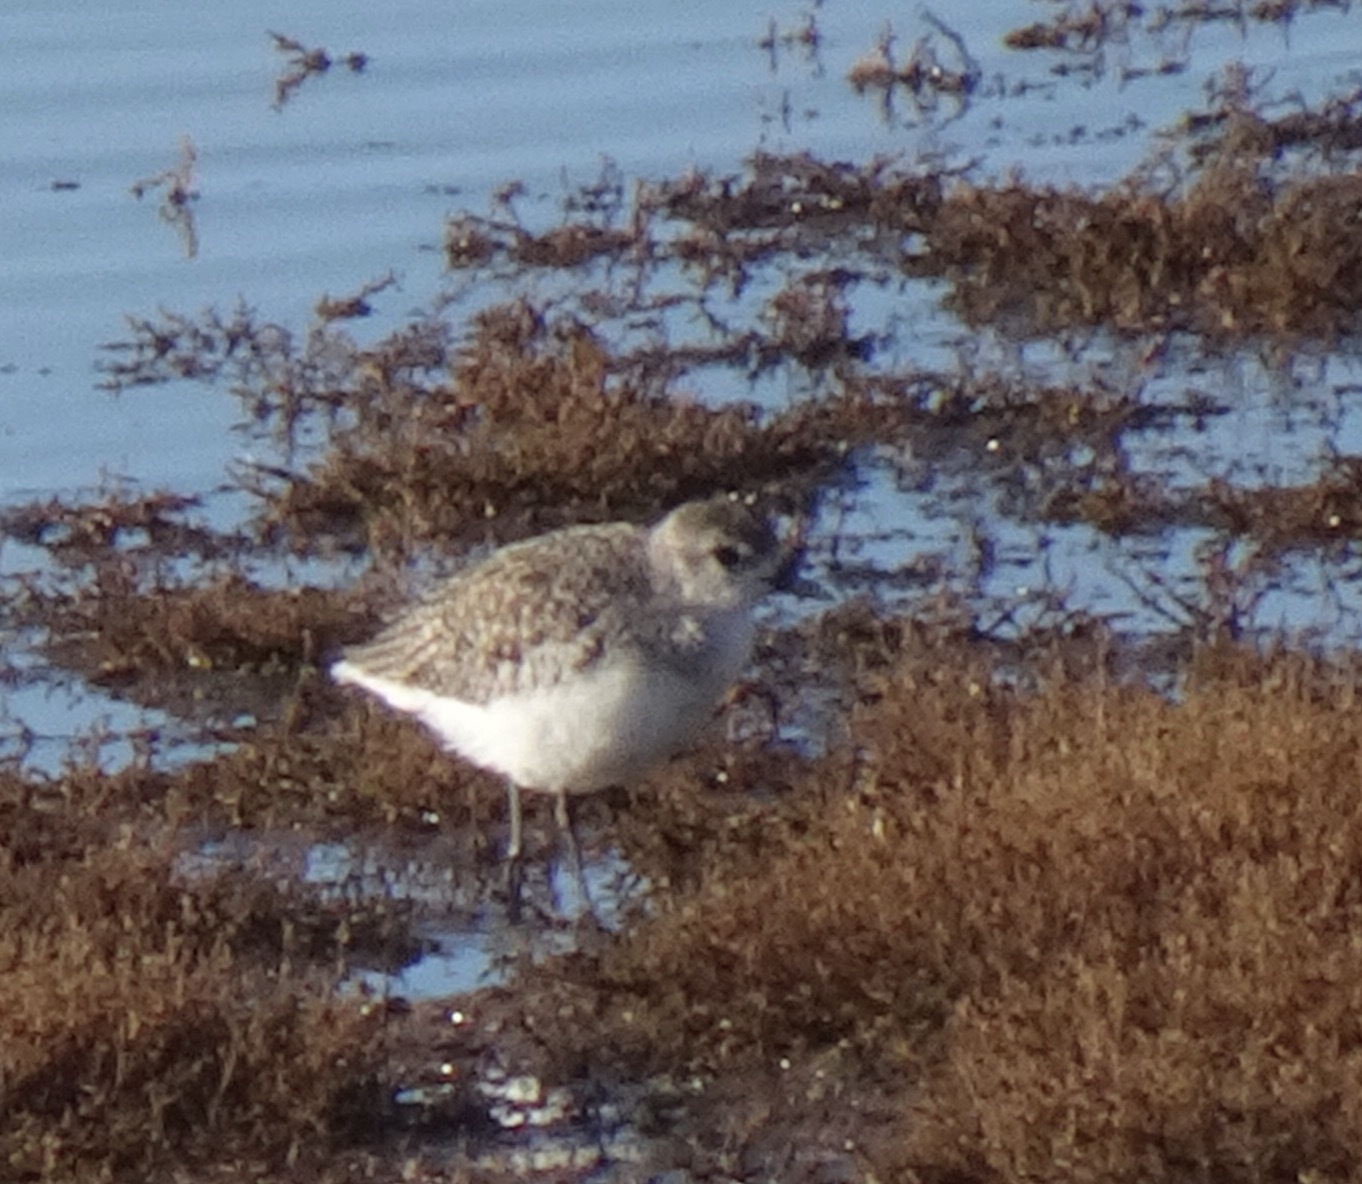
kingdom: Animalia
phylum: Chordata
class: Aves
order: Charadriiformes
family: Charadriidae
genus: Pluvialis
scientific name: Pluvialis squatarola
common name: Grey plover
